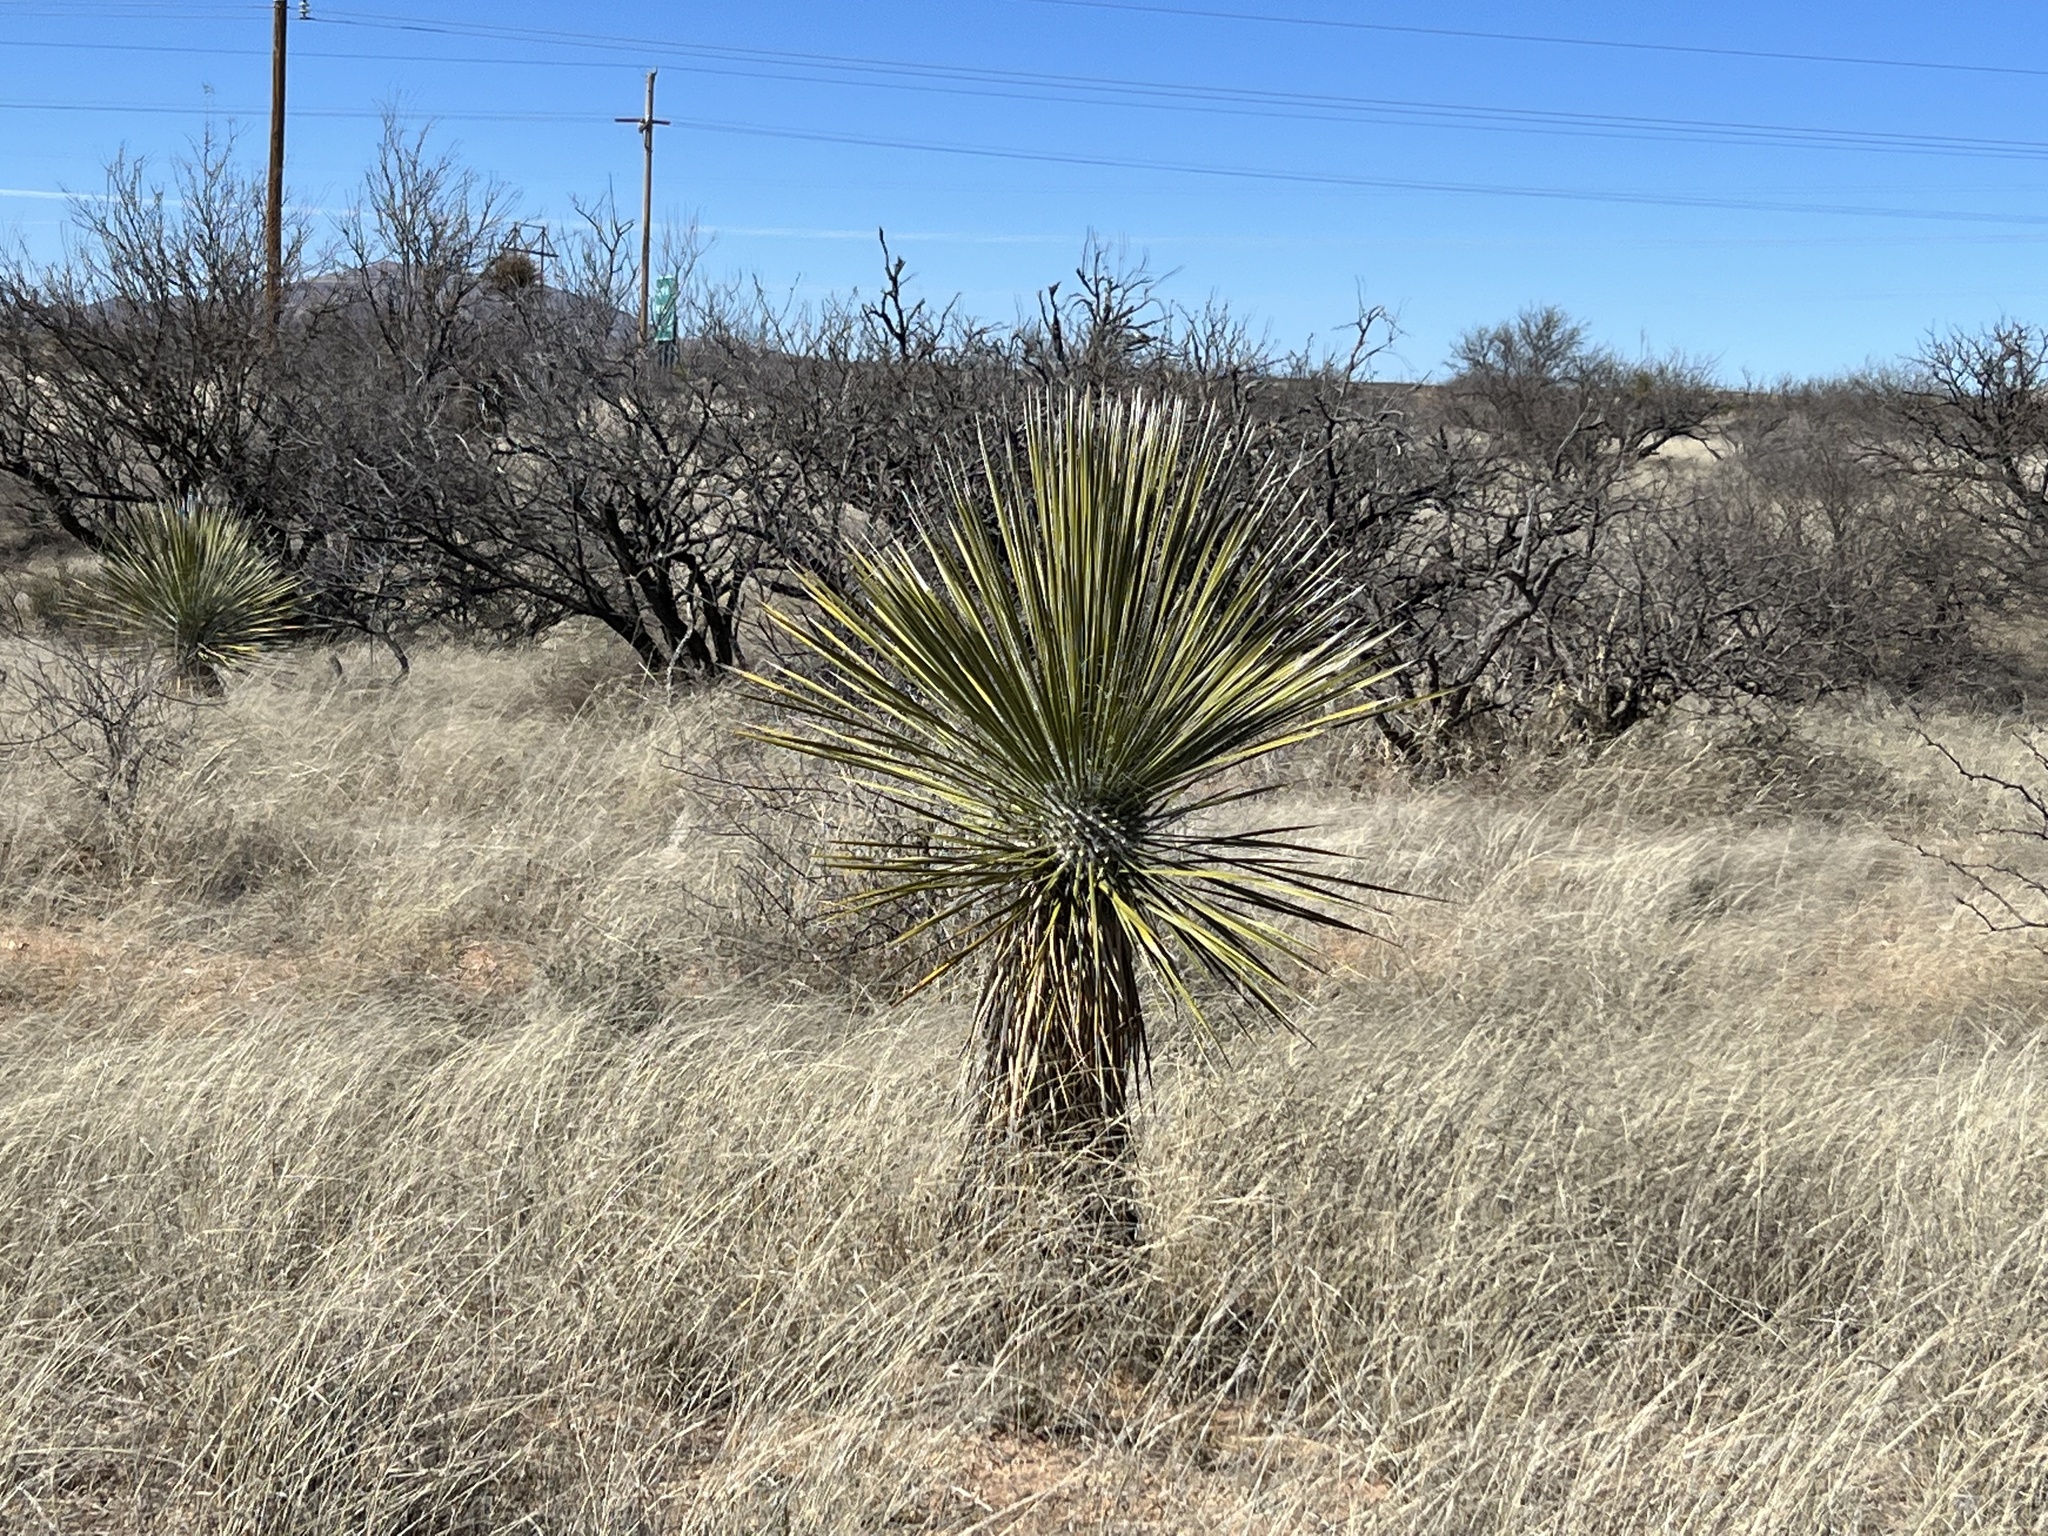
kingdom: Plantae
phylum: Tracheophyta
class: Liliopsida
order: Asparagales
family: Asparagaceae
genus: Yucca
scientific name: Yucca elata
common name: Palmella
